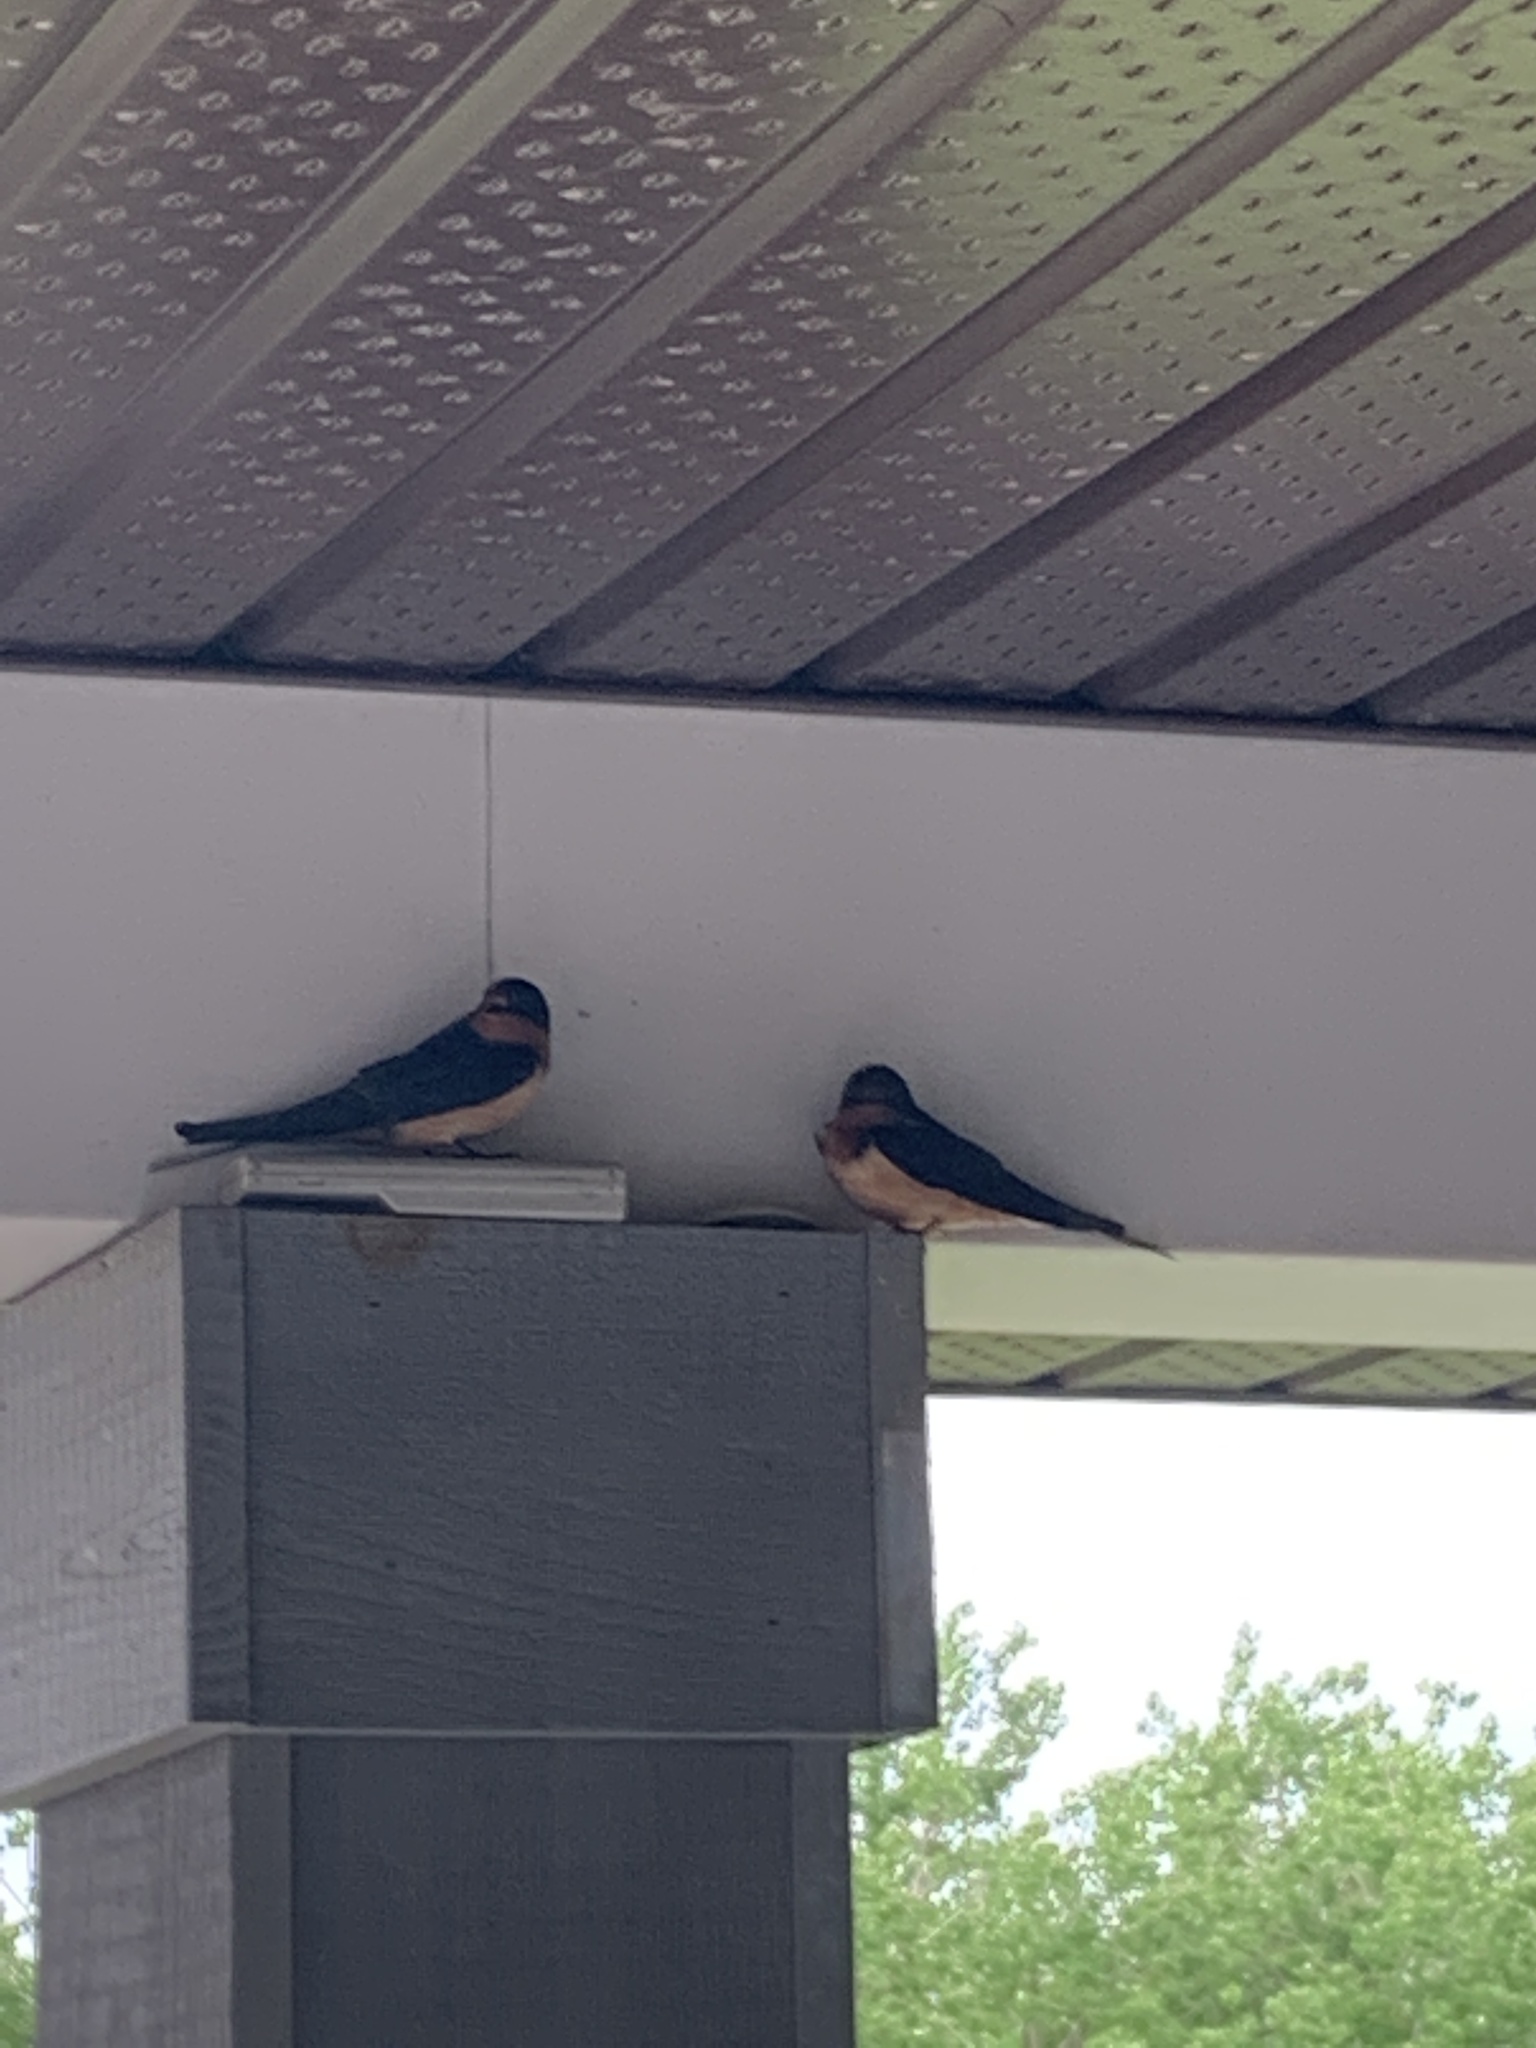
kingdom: Animalia
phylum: Chordata
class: Aves
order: Passeriformes
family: Hirundinidae
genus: Hirundo
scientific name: Hirundo rustica
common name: Barn swallow
